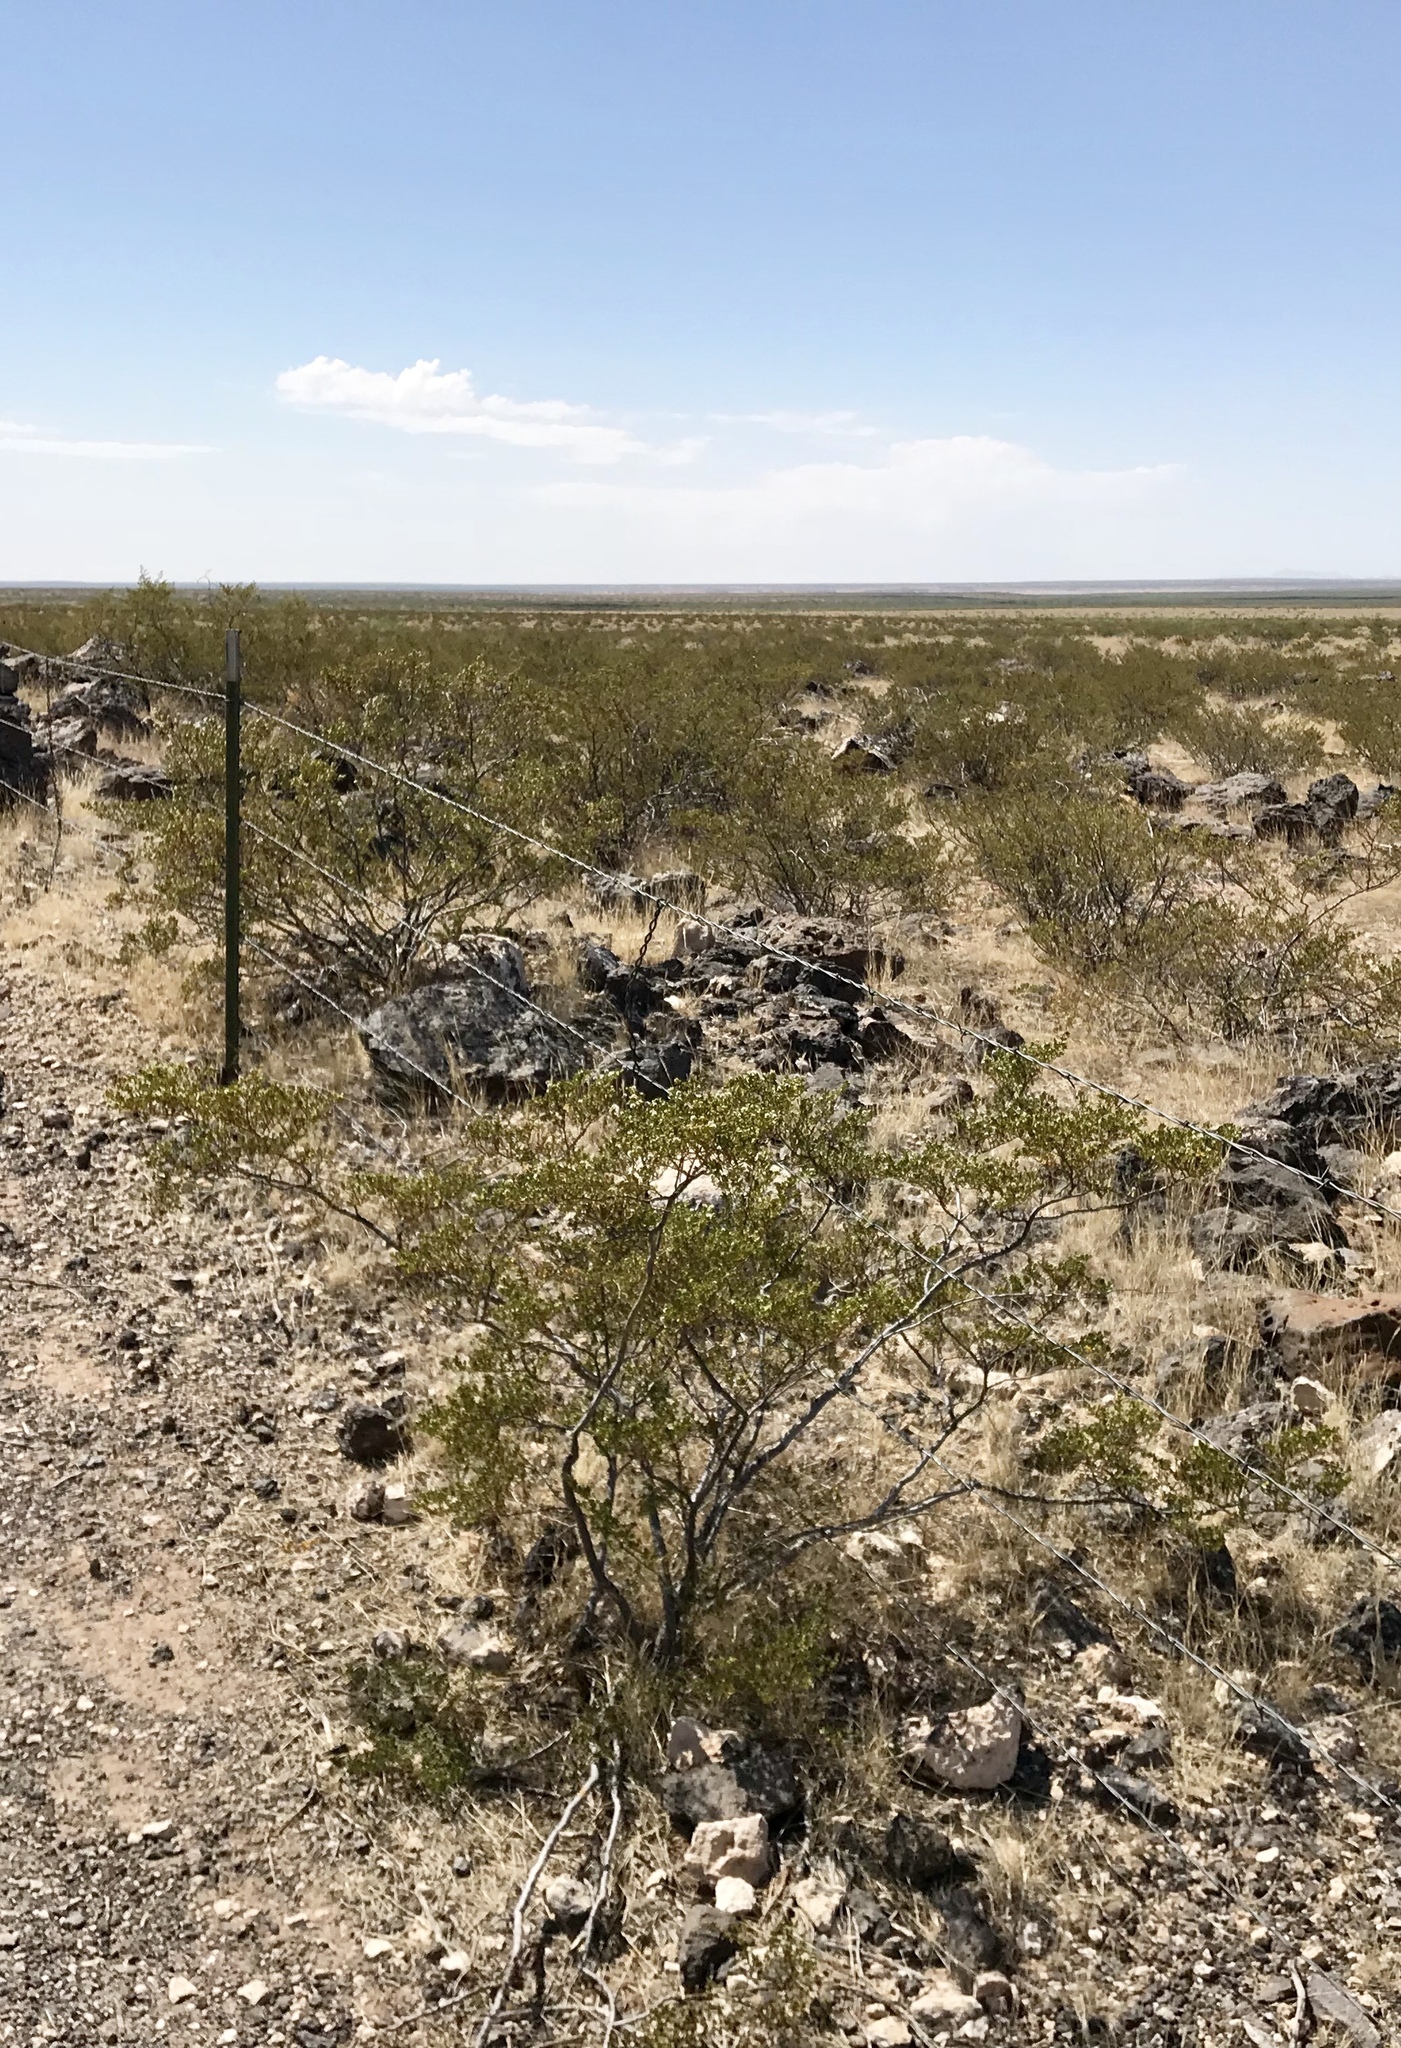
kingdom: Plantae
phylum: Tracheophyta
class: Magnoliopsida
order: Zygophyllales
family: Zygophyllaceae
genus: Larrea
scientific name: Larrea tridentata
